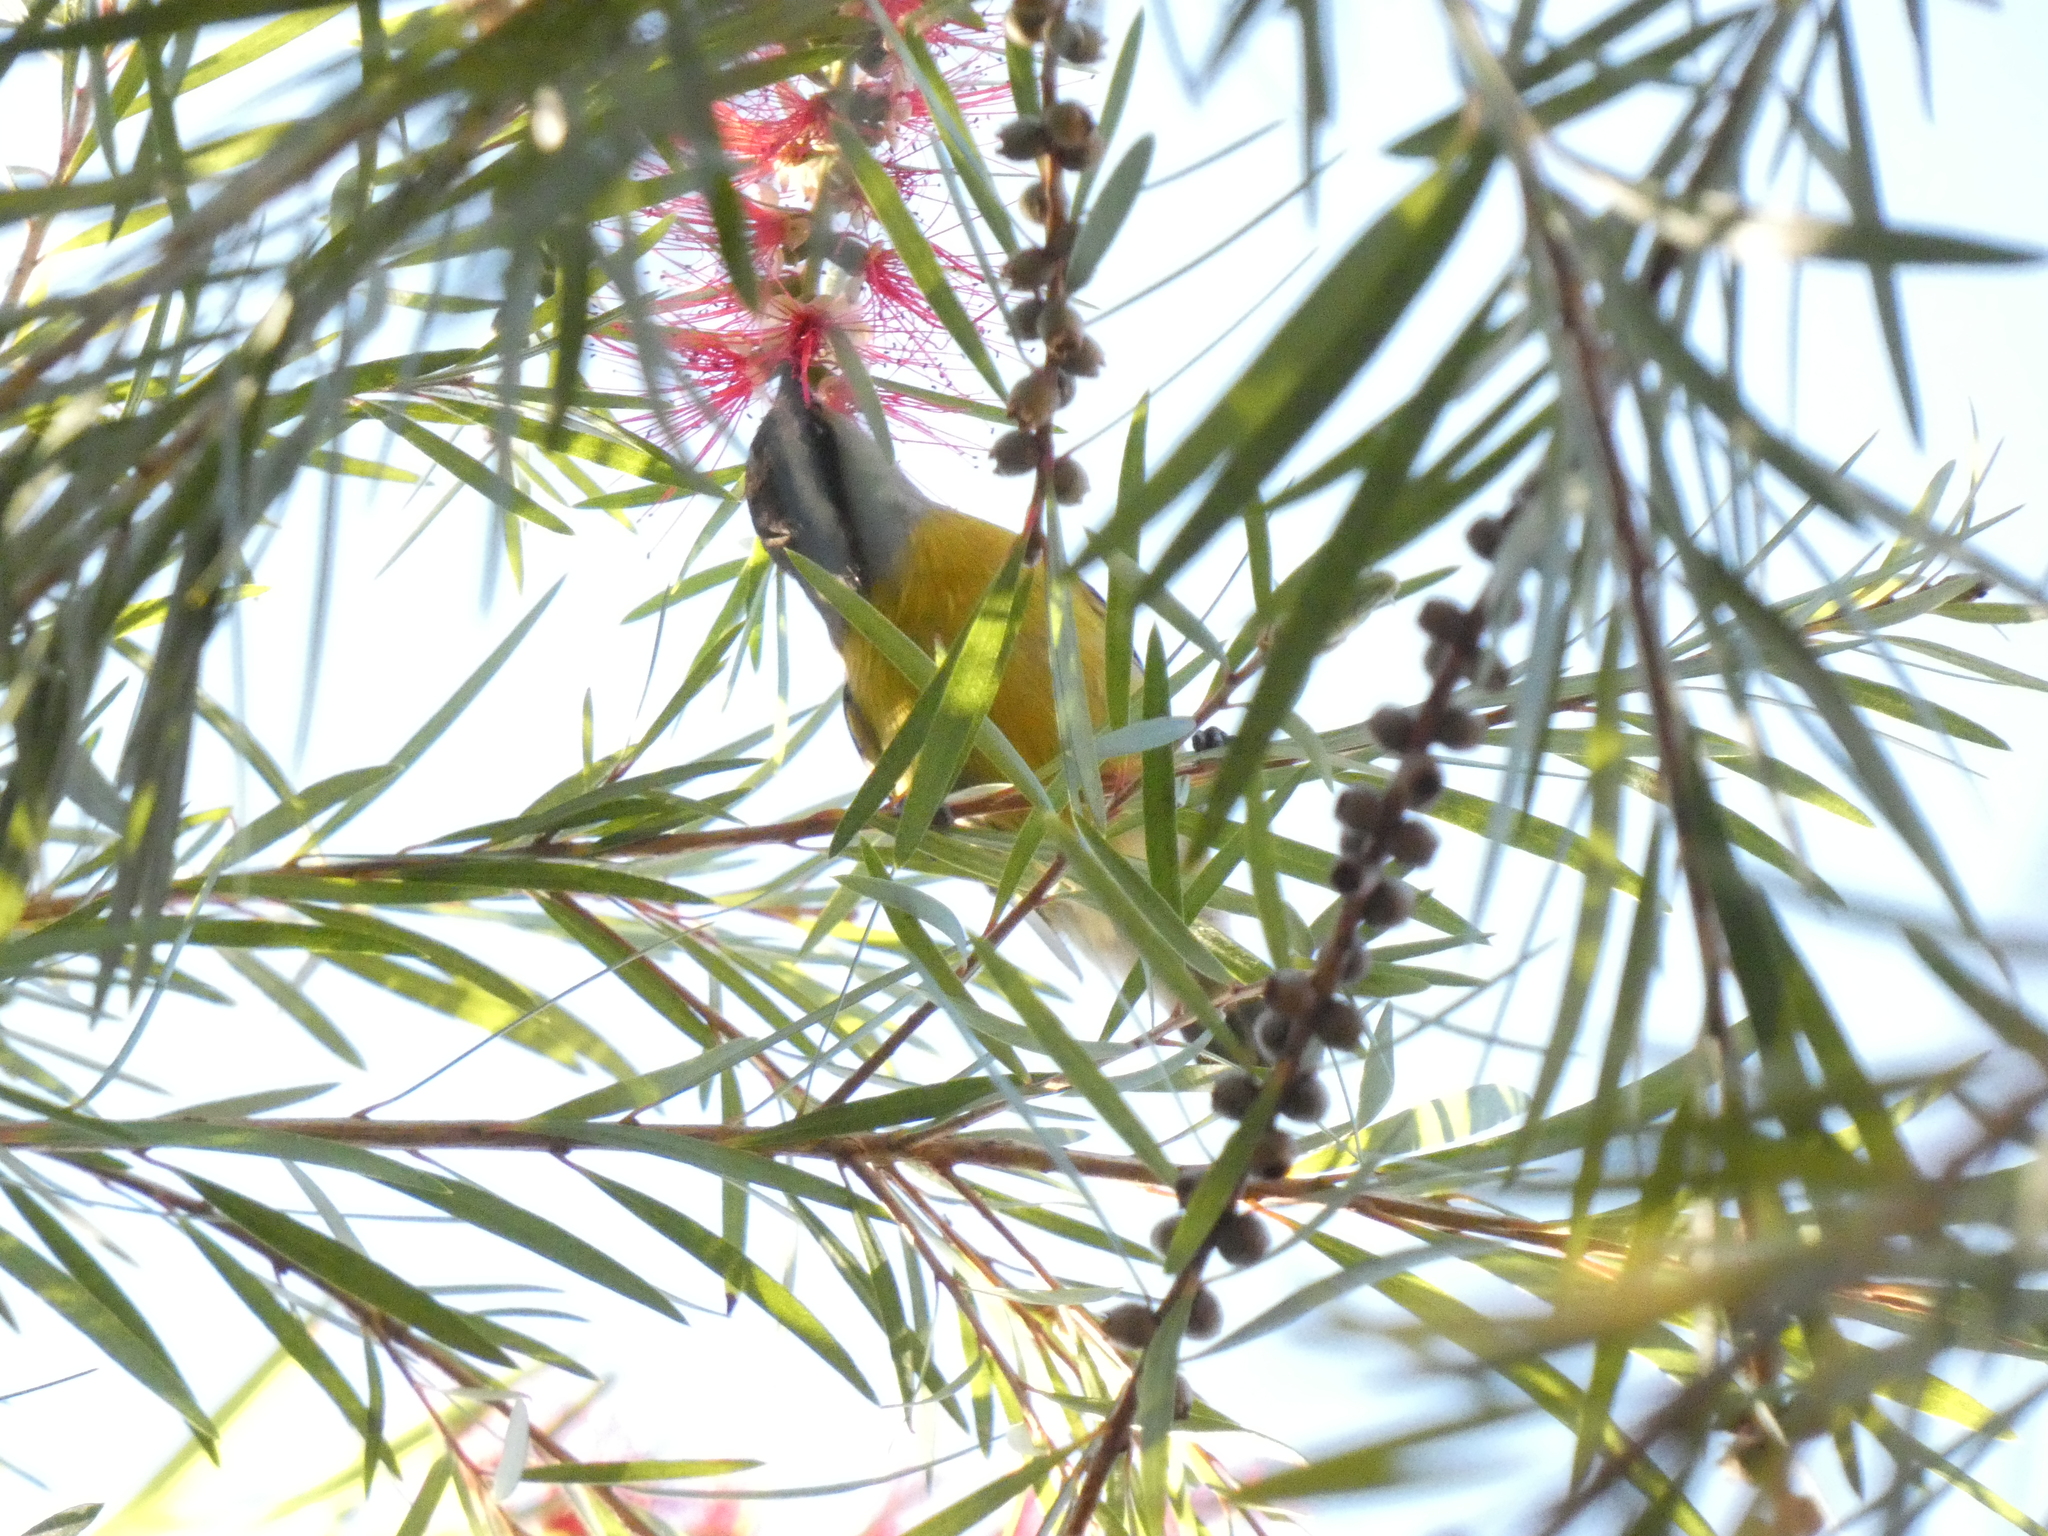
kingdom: Animalia
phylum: Chordata
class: Aves
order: Passeriformes
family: Thraupidae
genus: Coereba
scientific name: Coereba flaveola
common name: Bananaquit
